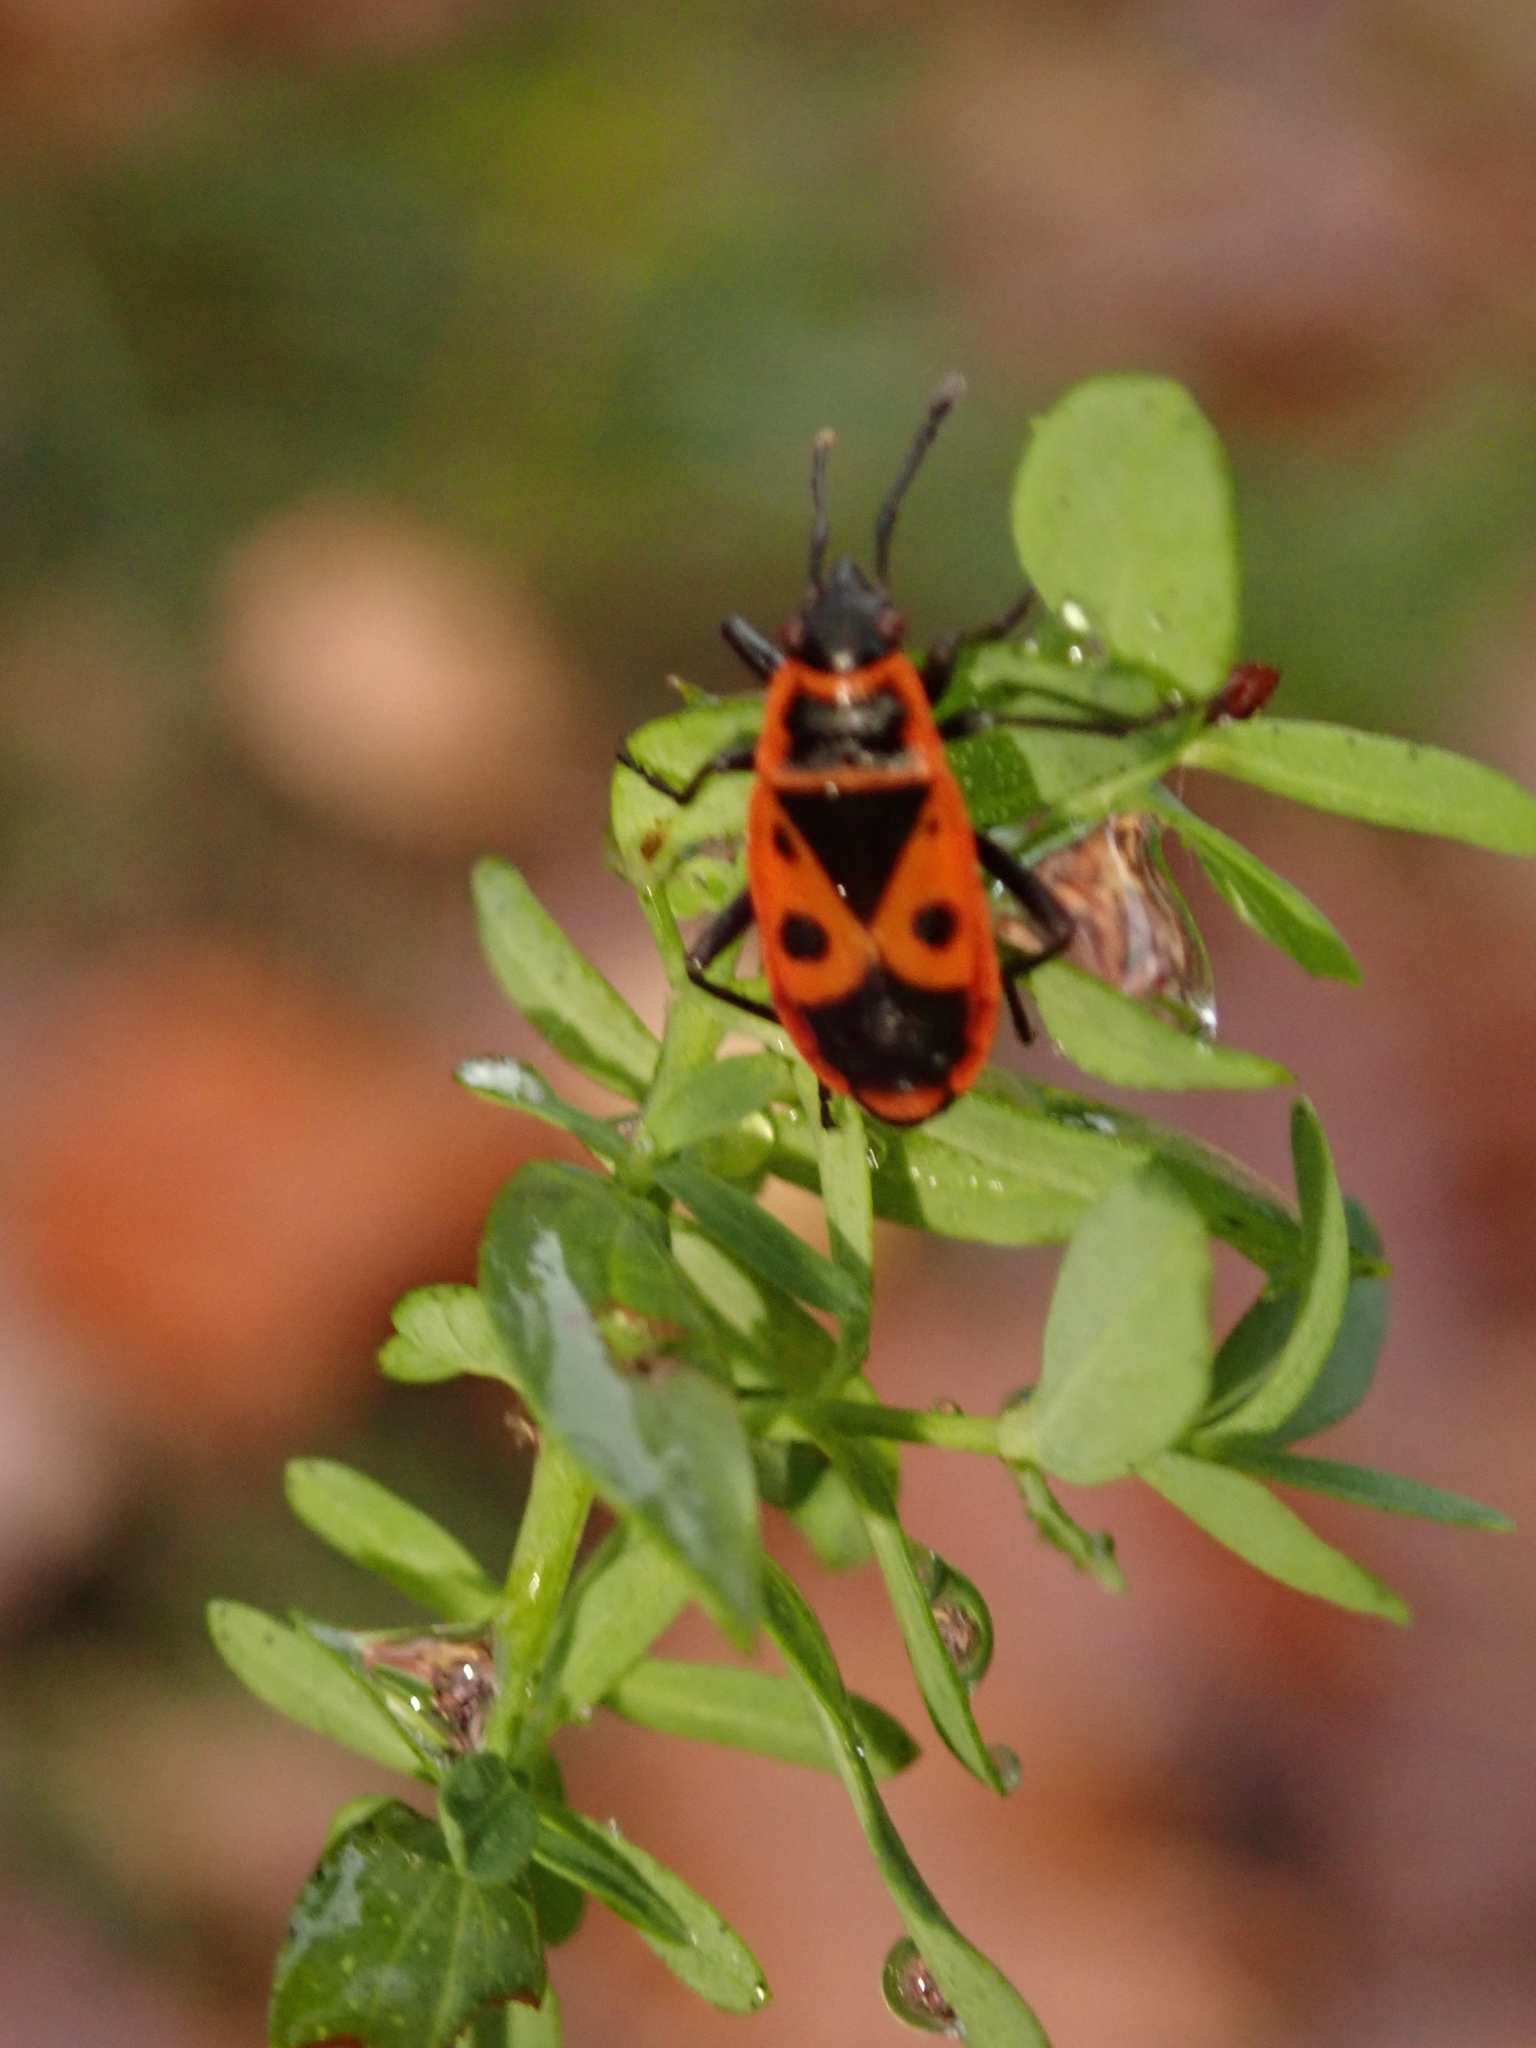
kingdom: Animalia
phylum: Arthropoda
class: Insecta
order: Hemiptera
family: Pyrrhocoridae
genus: Pyrrhocoris
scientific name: Pyrrhocoris apterus
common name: Firebug
